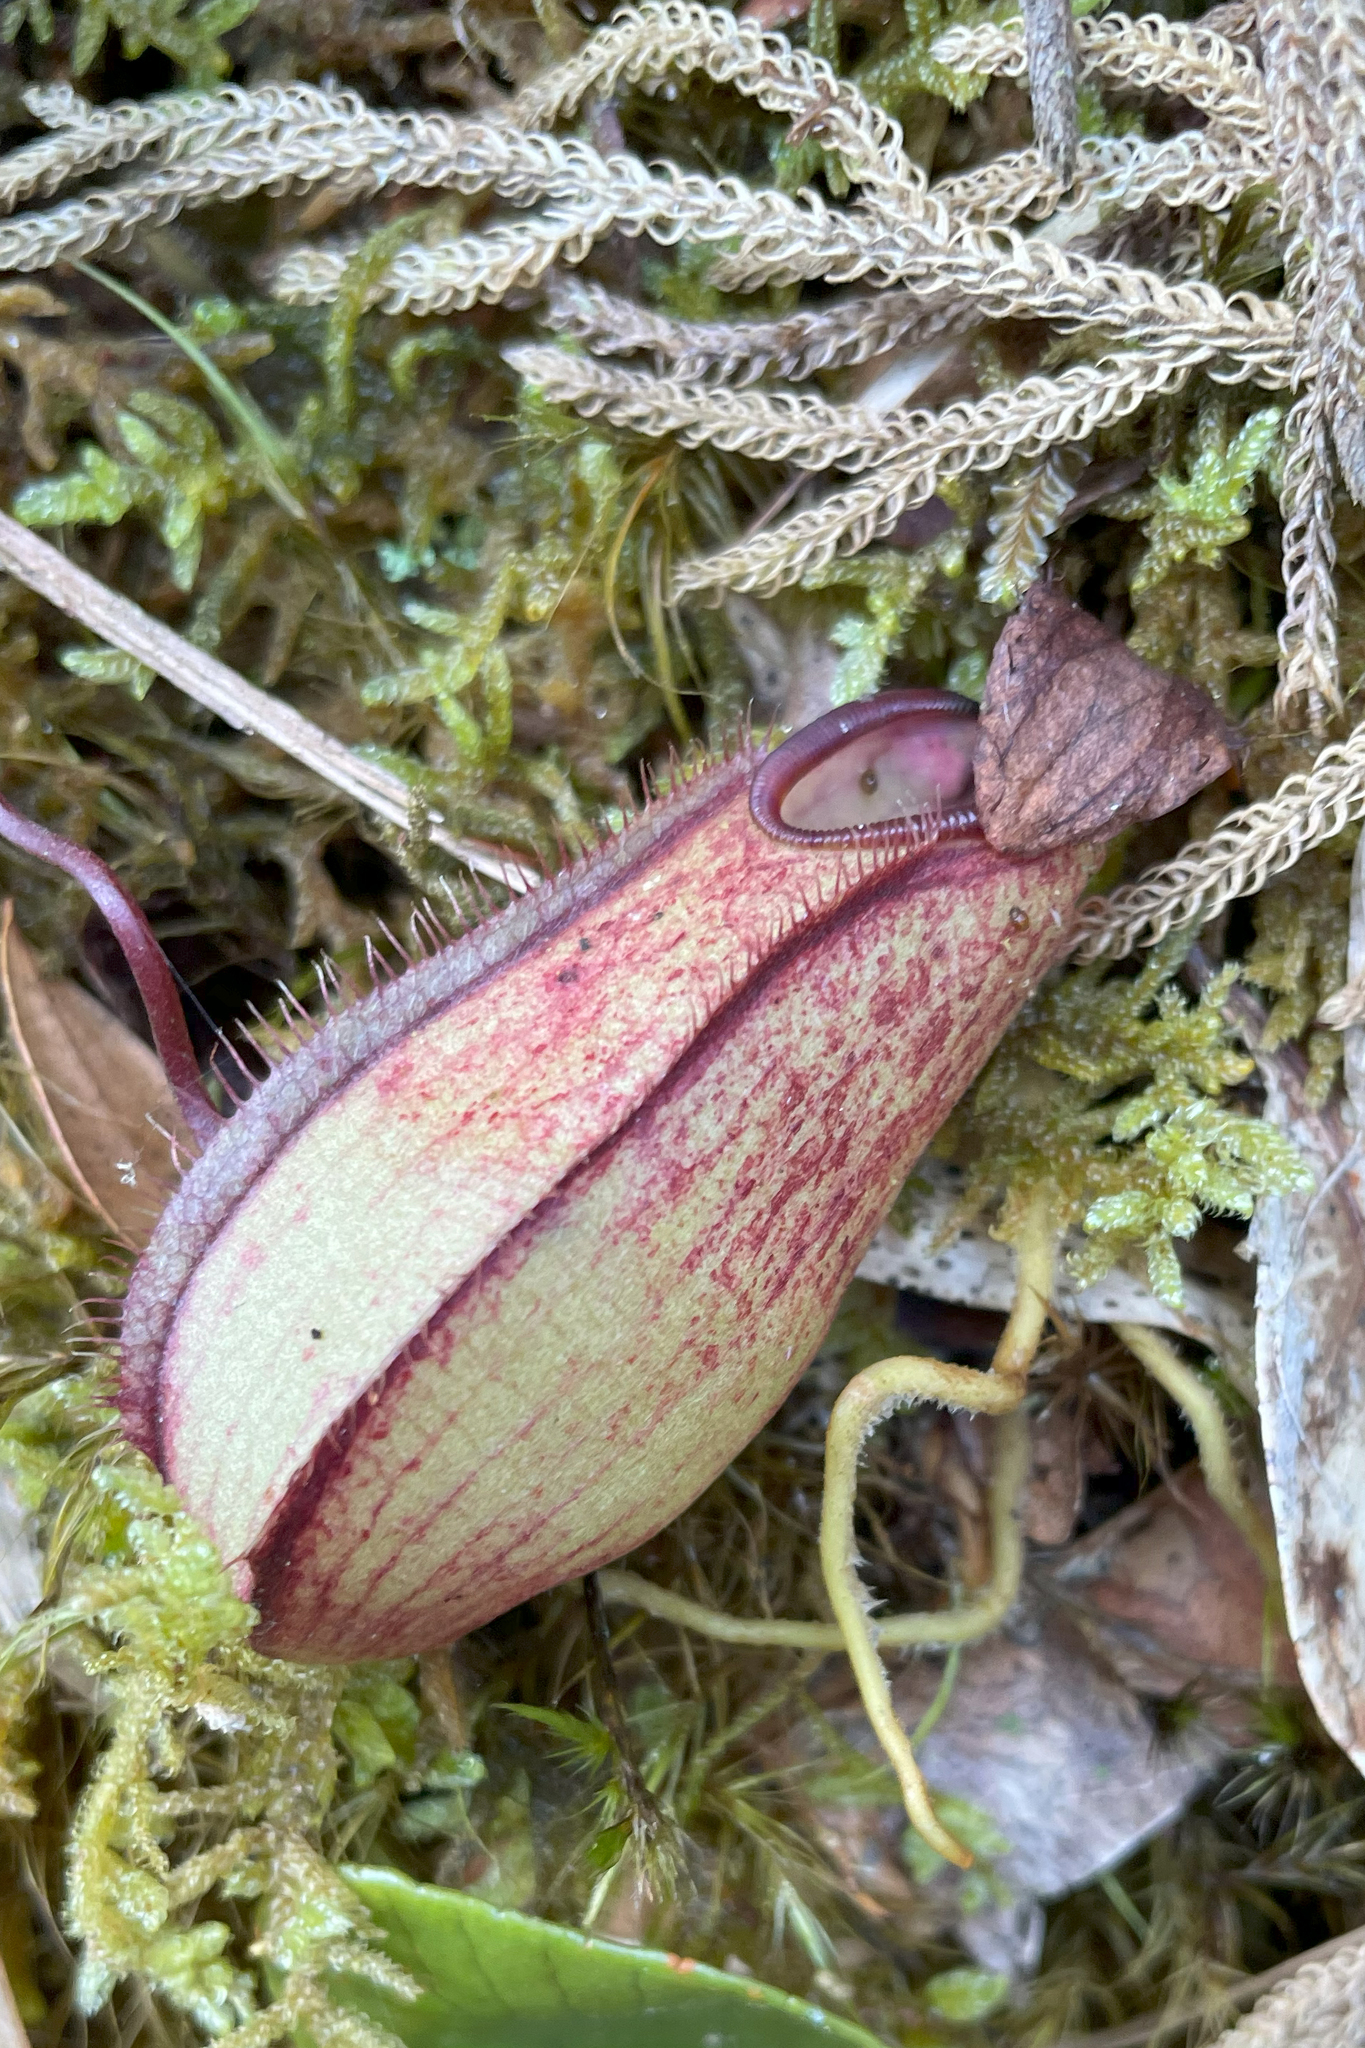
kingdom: Plantae
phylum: Tracheophyta
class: Magnoliopsida
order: Caryophyllales
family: Nepenthaceae
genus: Nepenthes
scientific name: Nepenthes tentaculata
